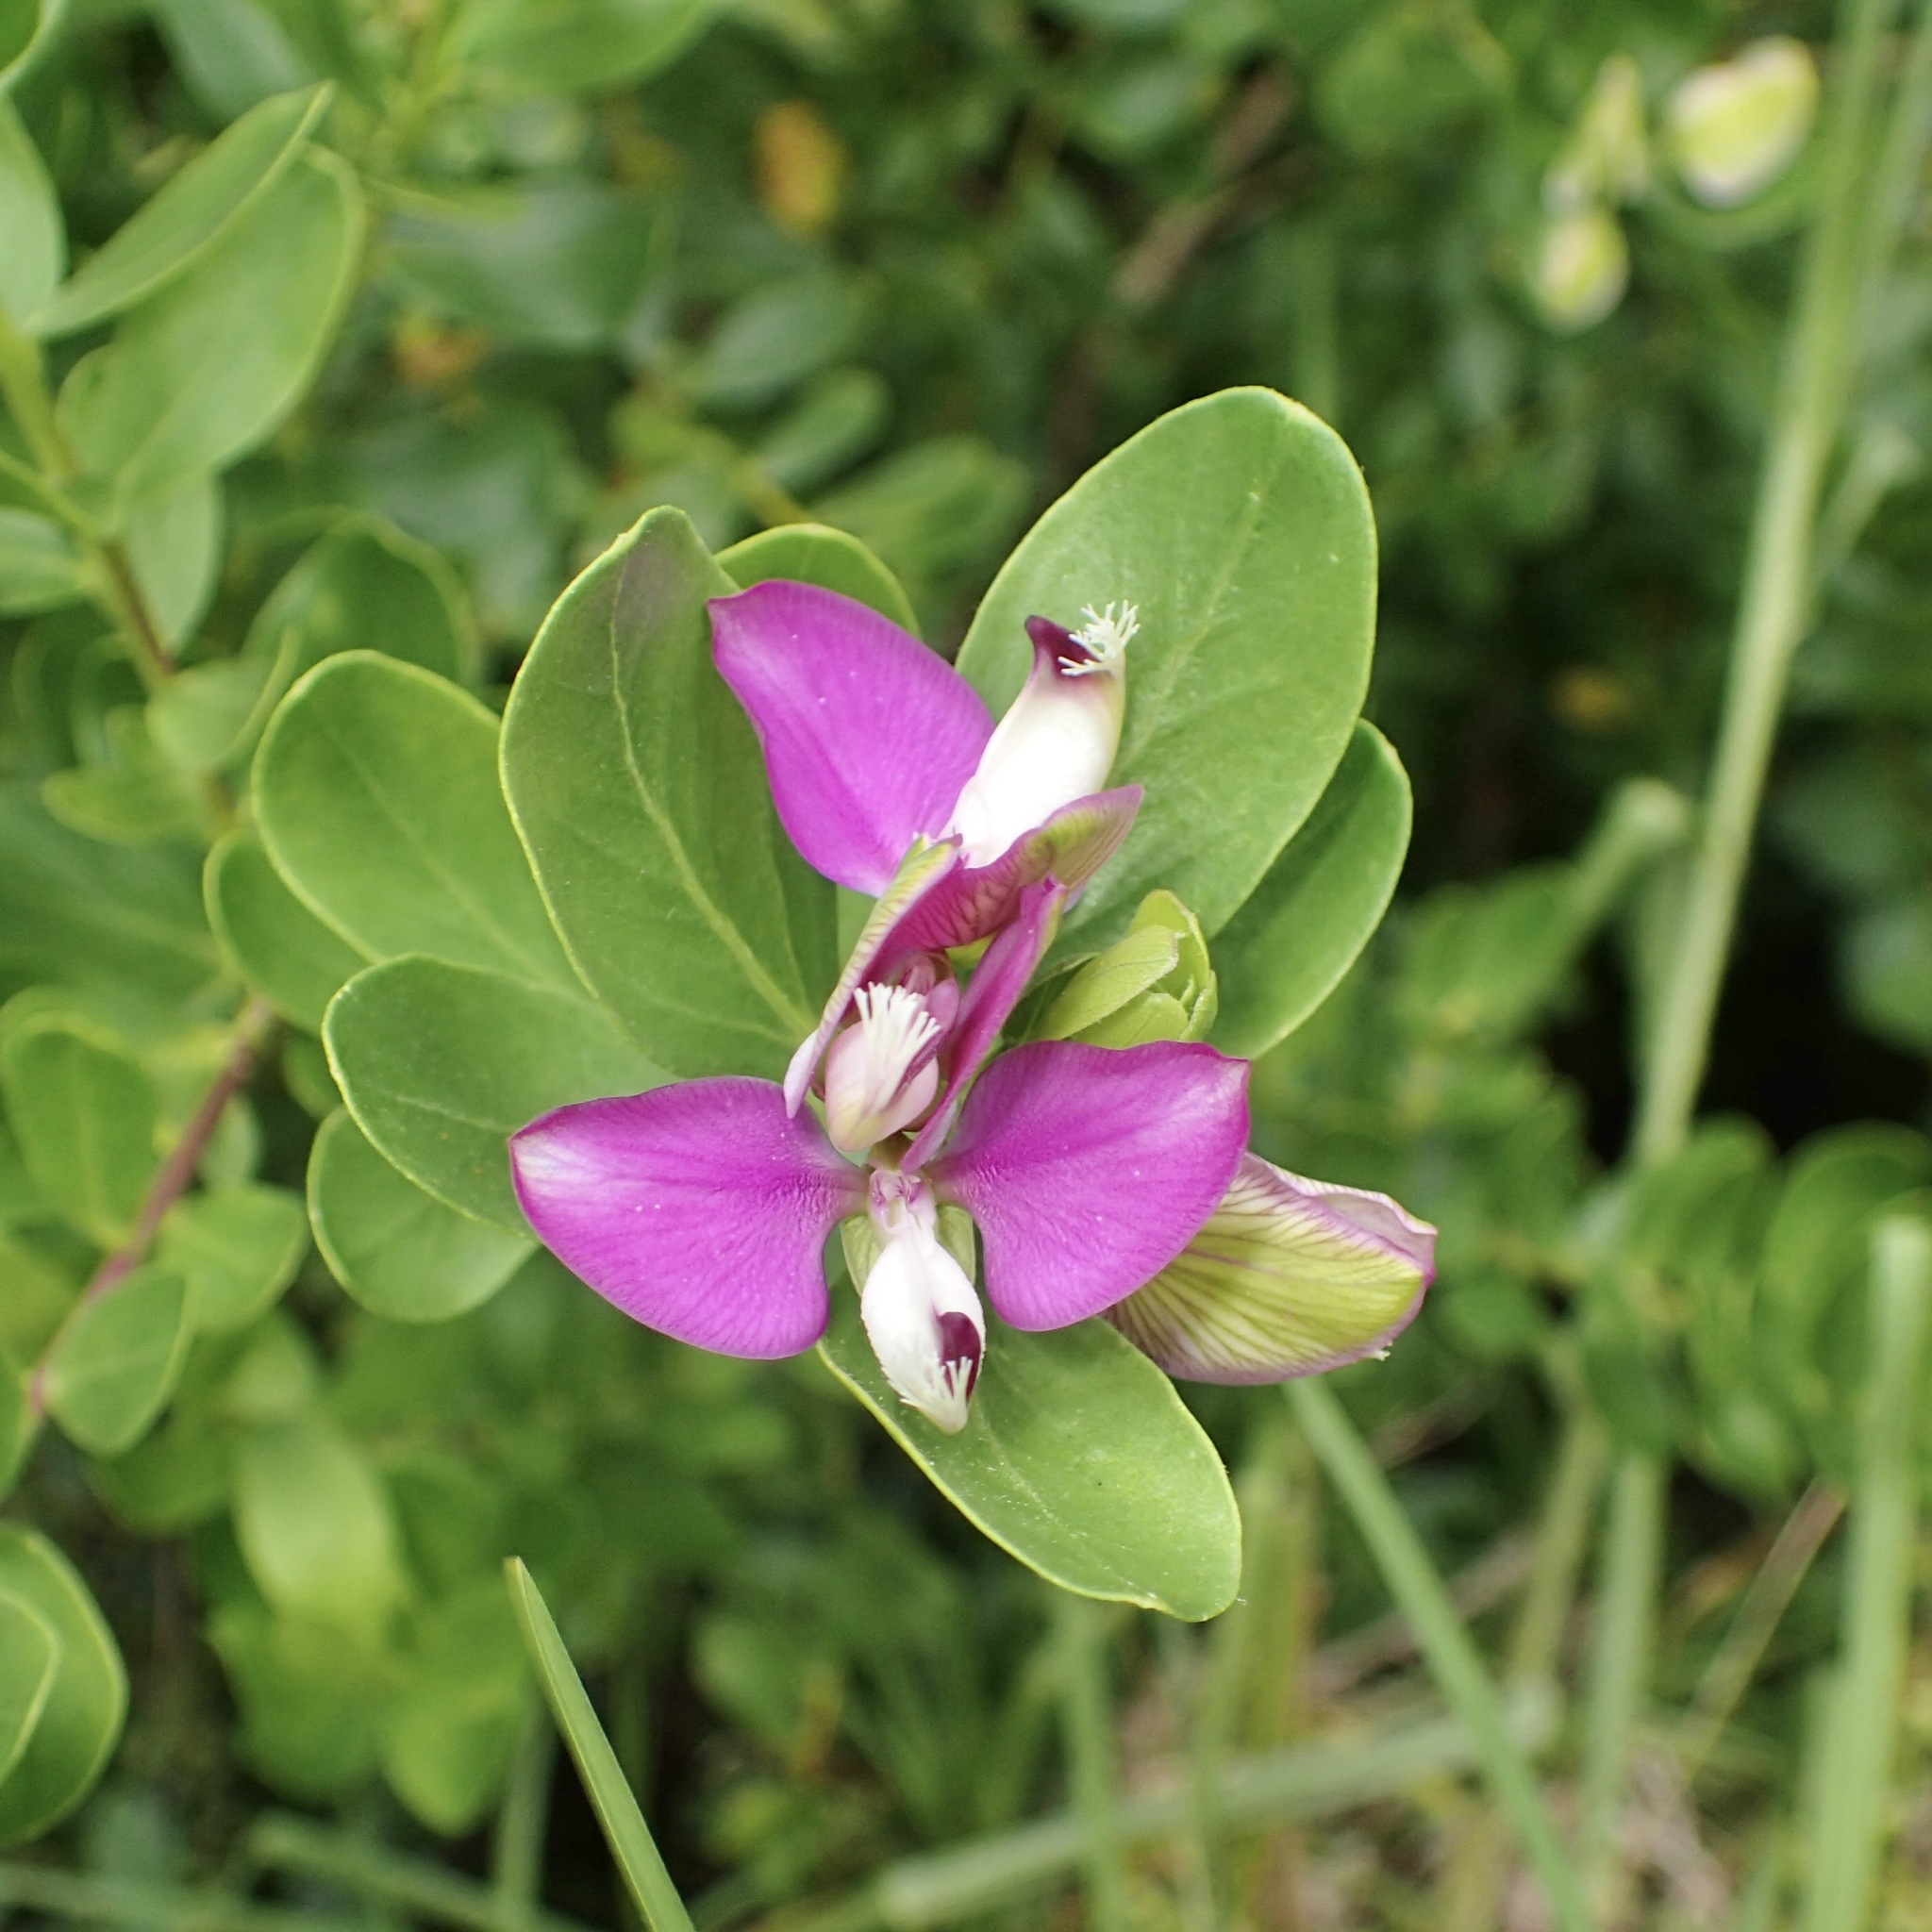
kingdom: Plantae
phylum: Tracheophyta
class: Magnoliopsida
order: Fabales
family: Polygalaceae
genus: Polygala
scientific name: Polygala myrtifolia
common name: Myrtle-leaf milkwort
